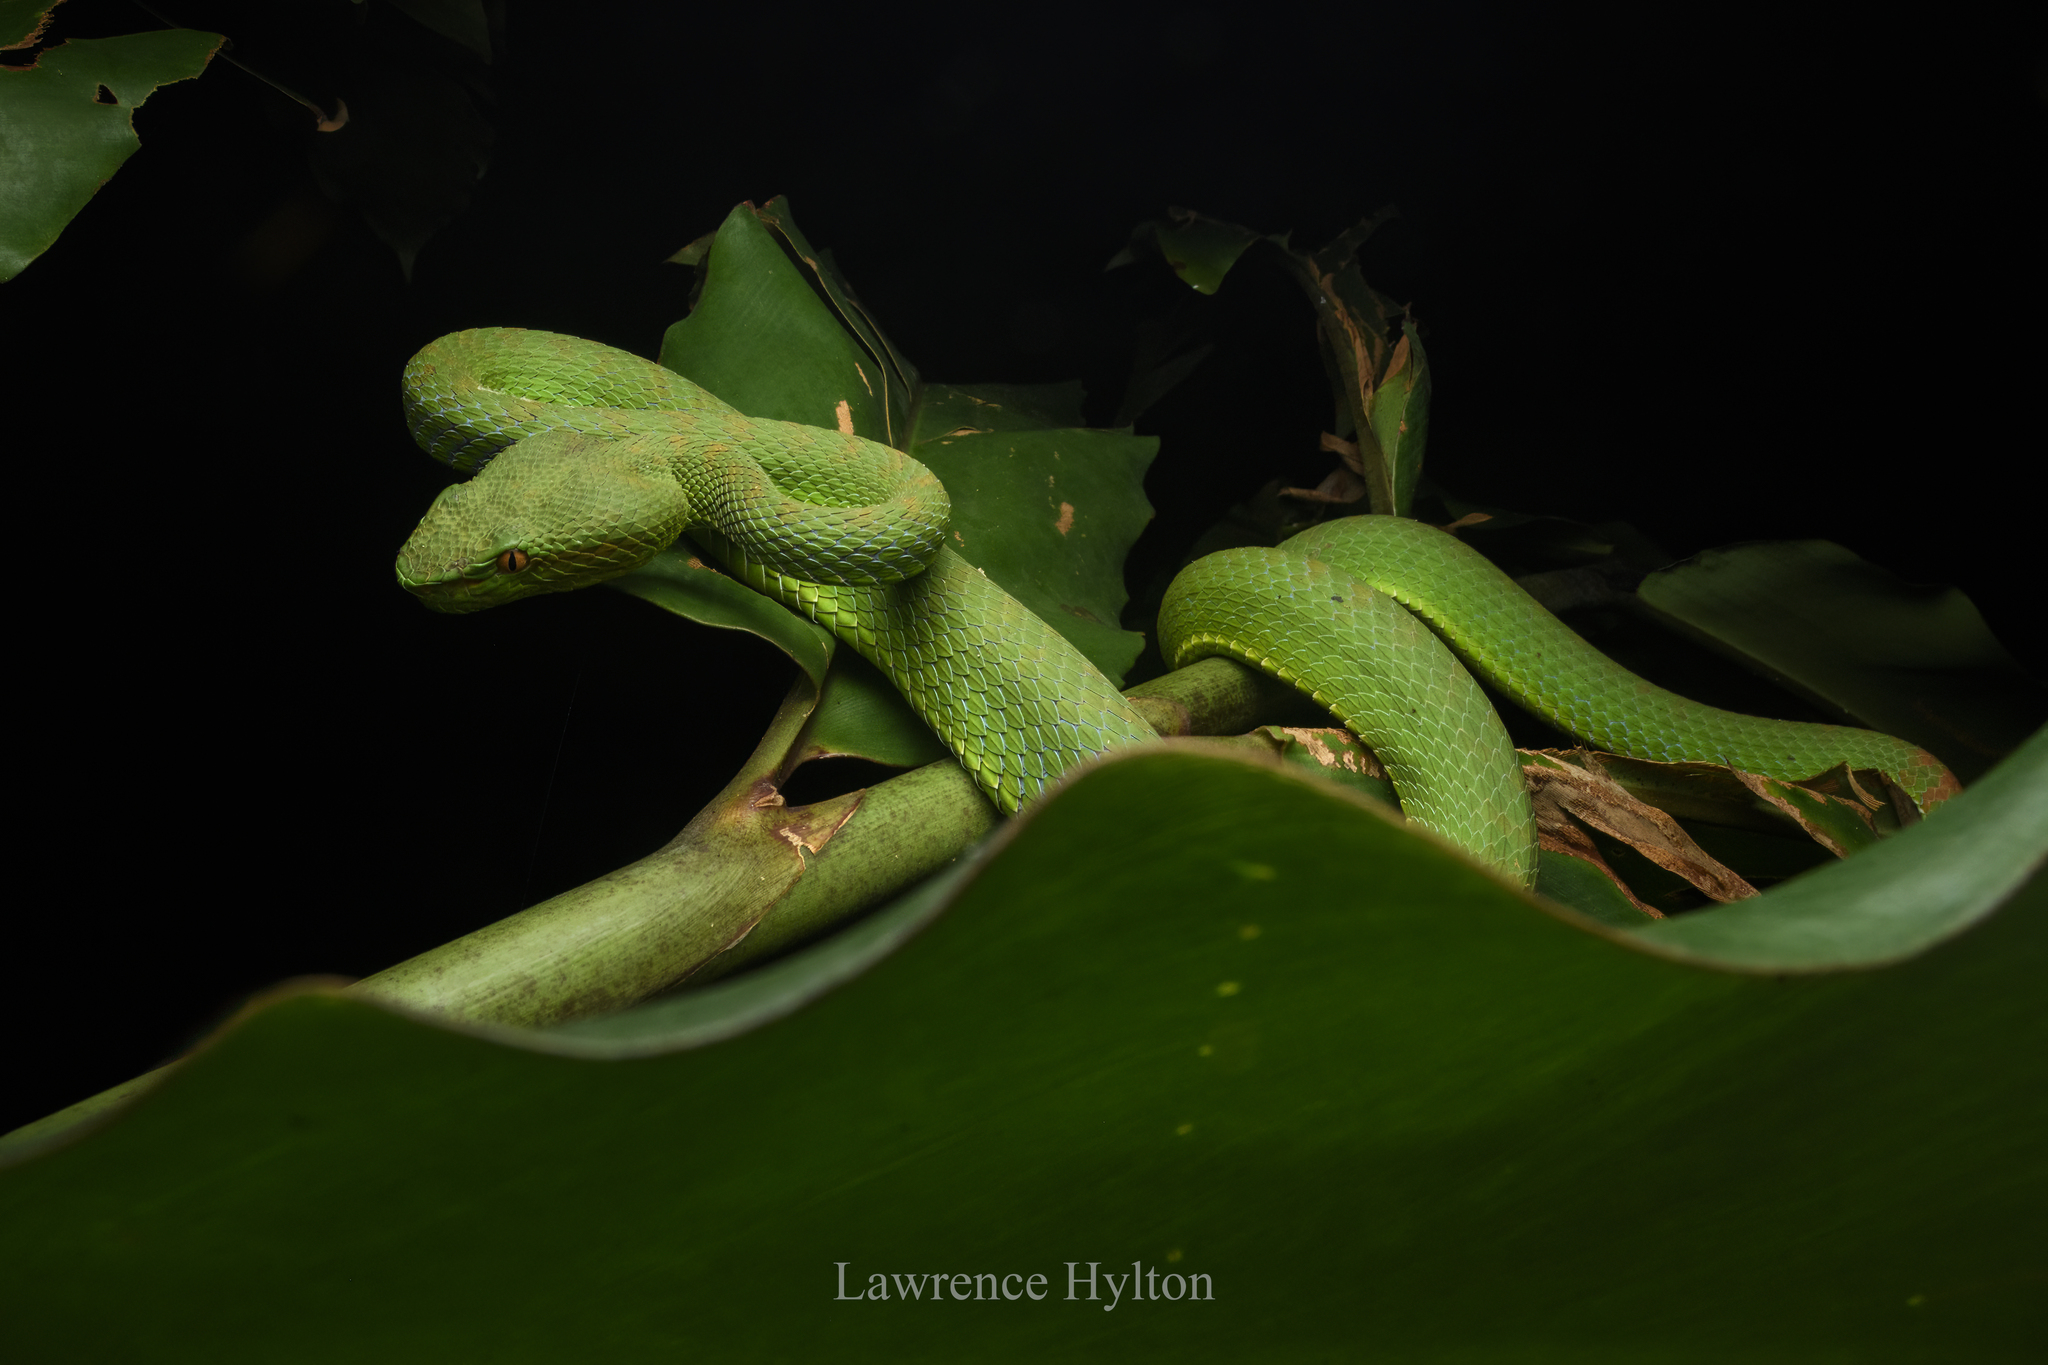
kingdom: Animalia
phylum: Chordata
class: Squamata
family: Viperidae
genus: Trimeresurus
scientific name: Trimeresurus phuketensis
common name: Phuket pitviper
